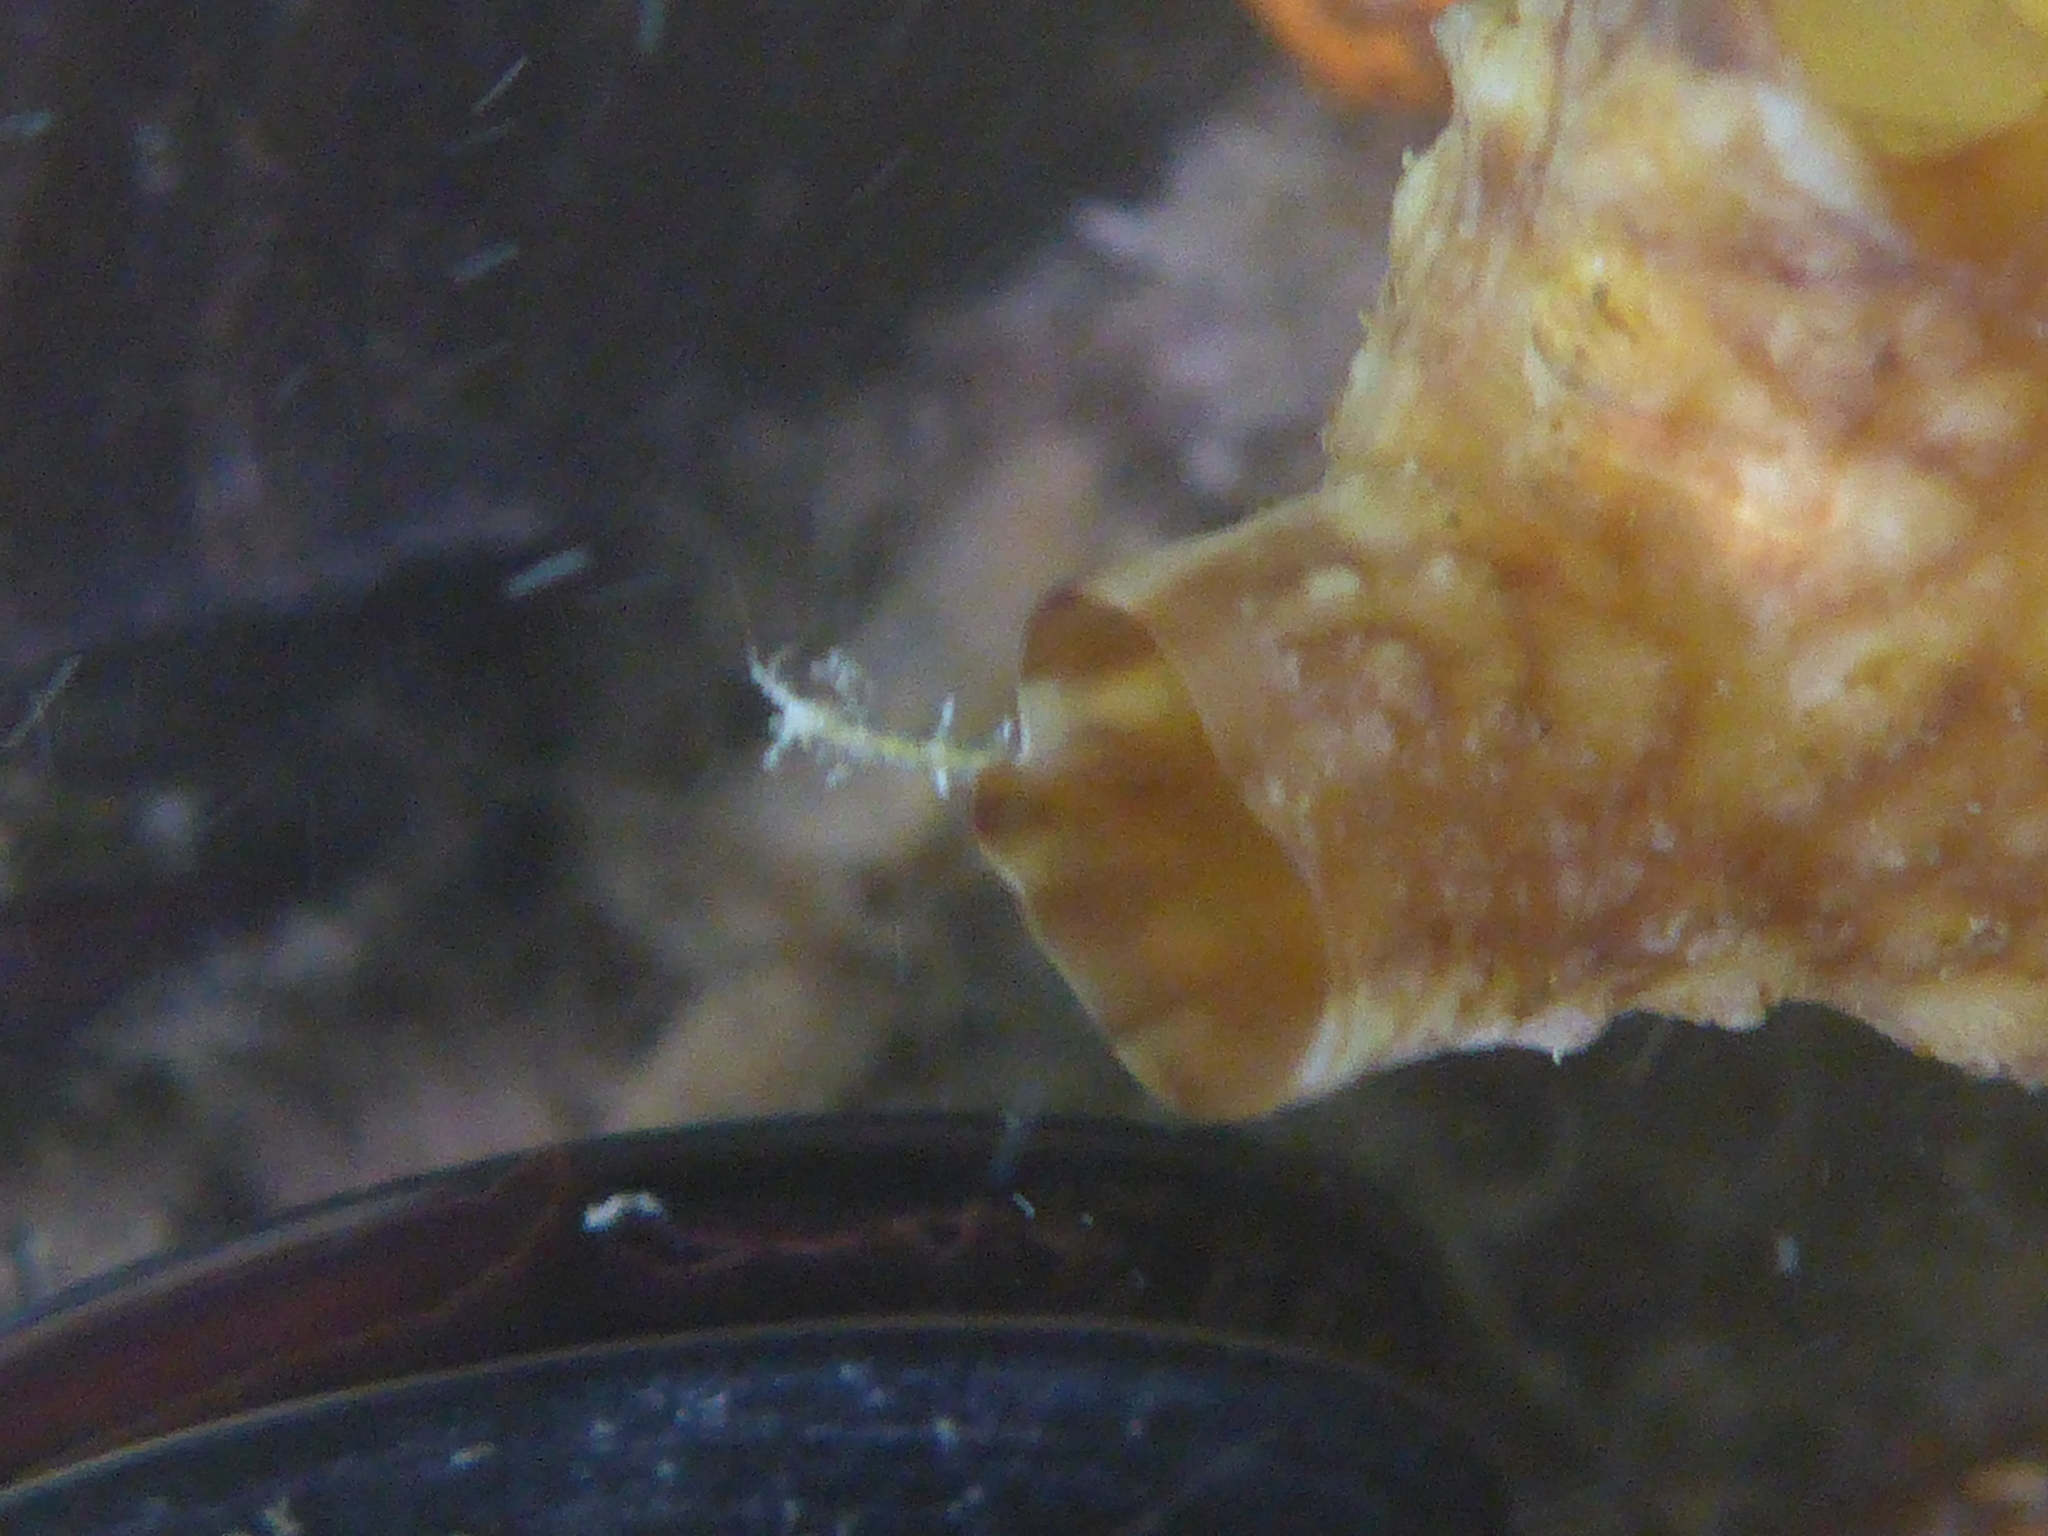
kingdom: Animalia
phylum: Chordata
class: Ascidiacea
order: Stolidobranchia
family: Styelidae
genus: Styela
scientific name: Styela clava
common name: Leathery sea squirt
